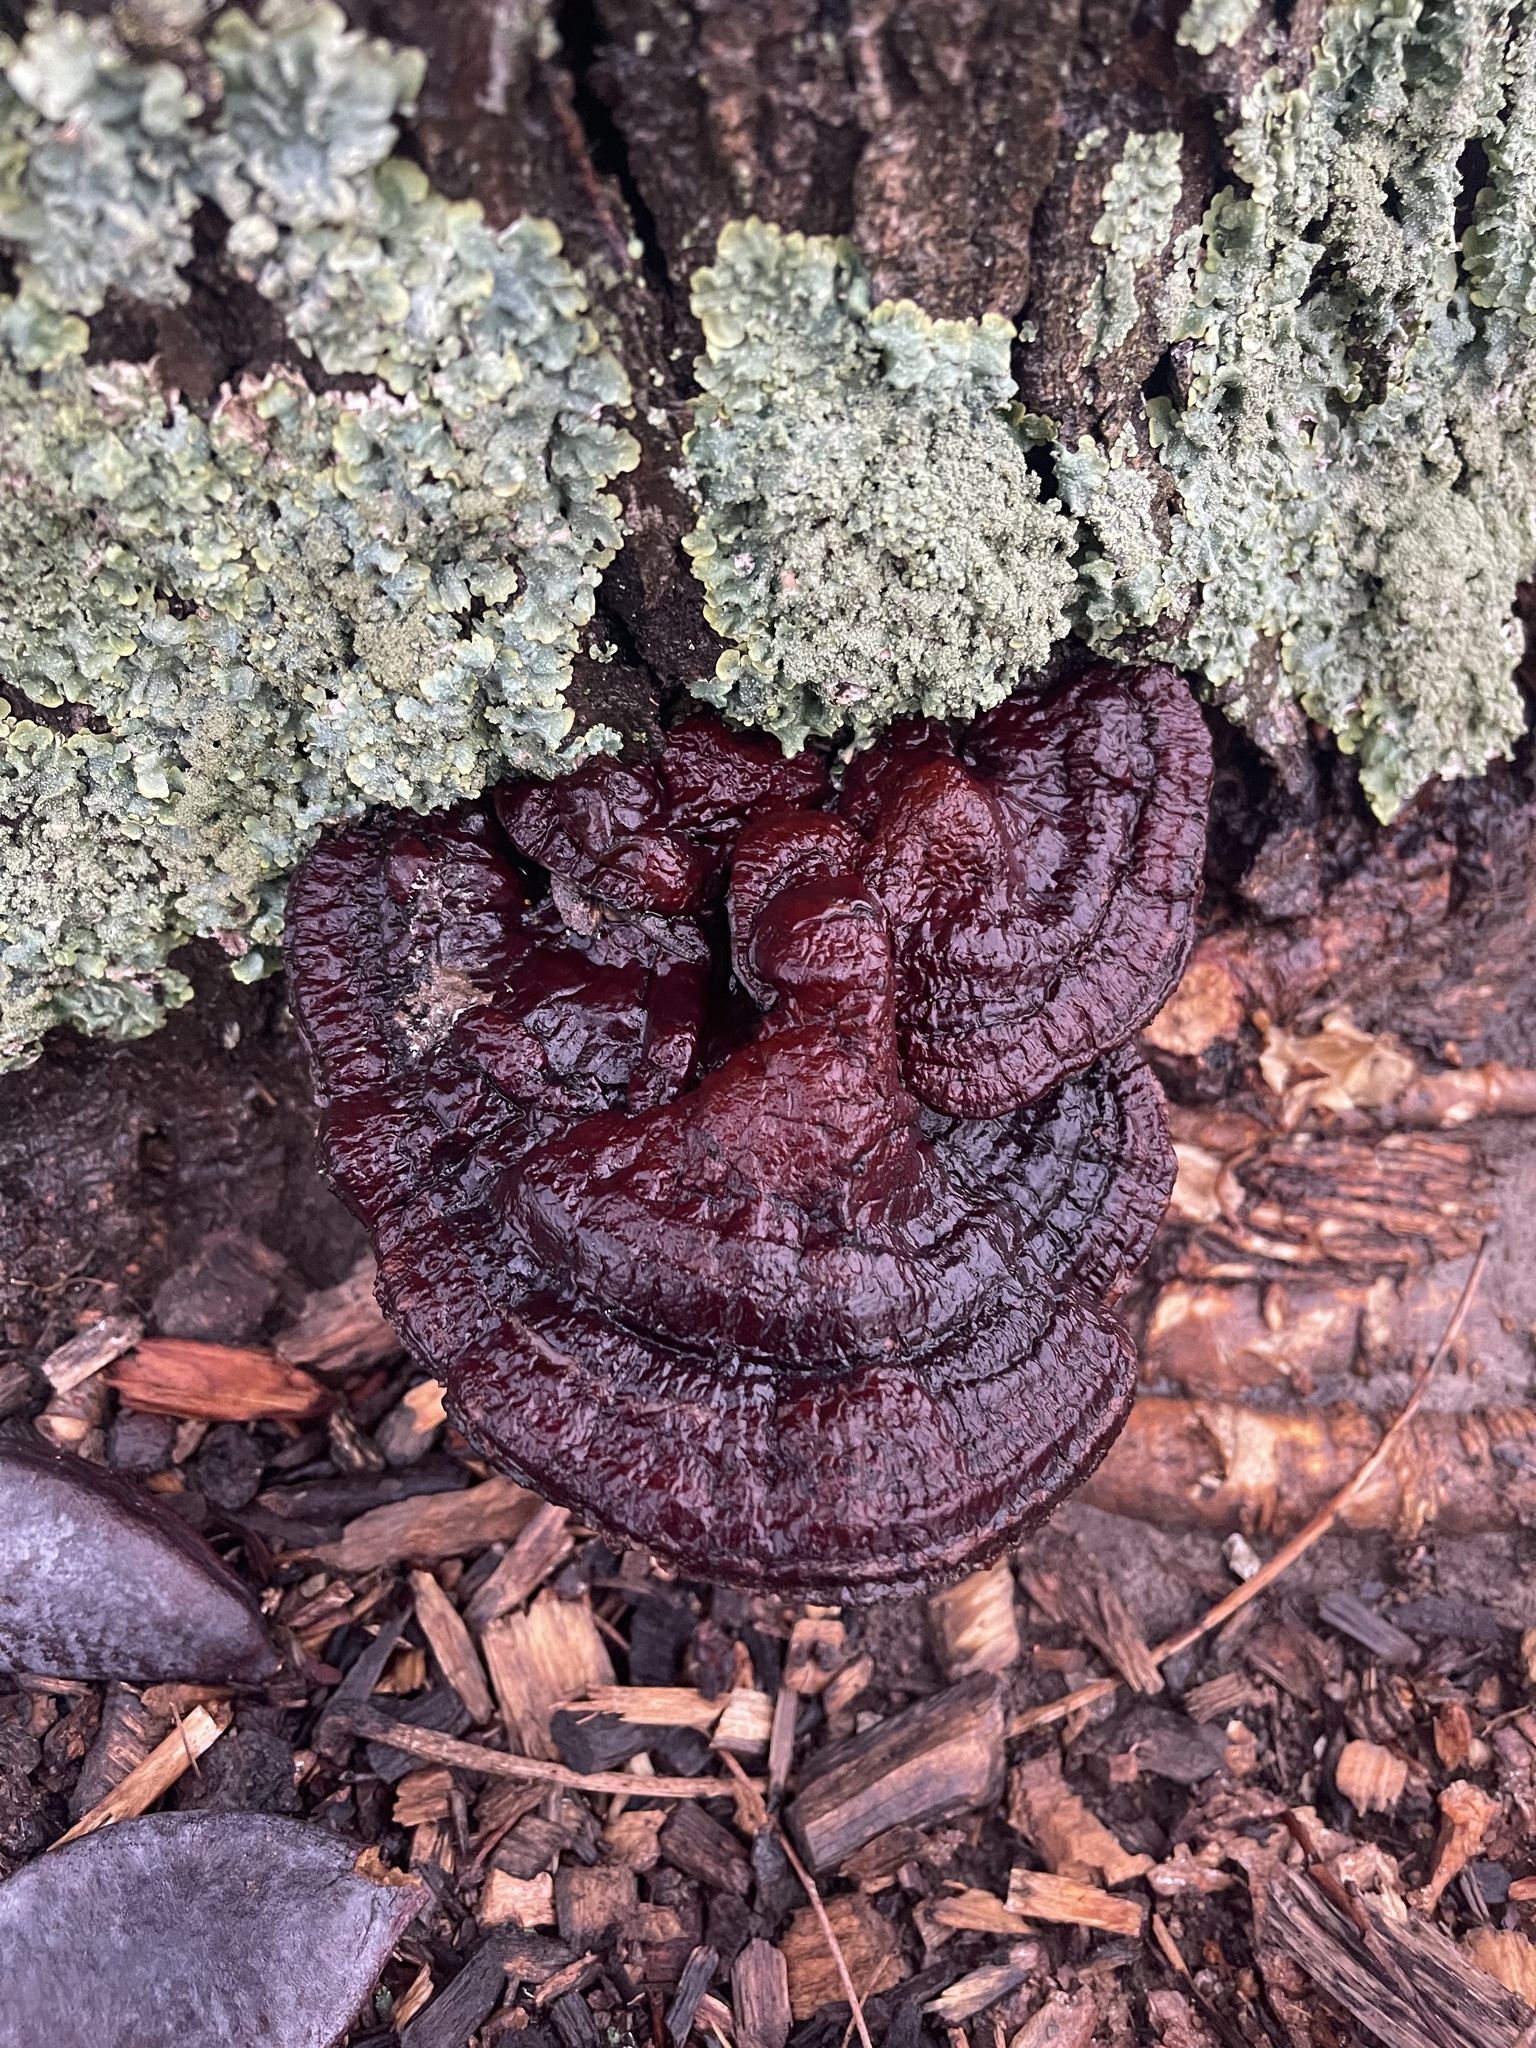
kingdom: Fungi
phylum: Basidiomycota
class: Agaricomycetes
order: Polyporales
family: Polyporaceae
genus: Ganoderma
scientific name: Ganoderma resinaceum
